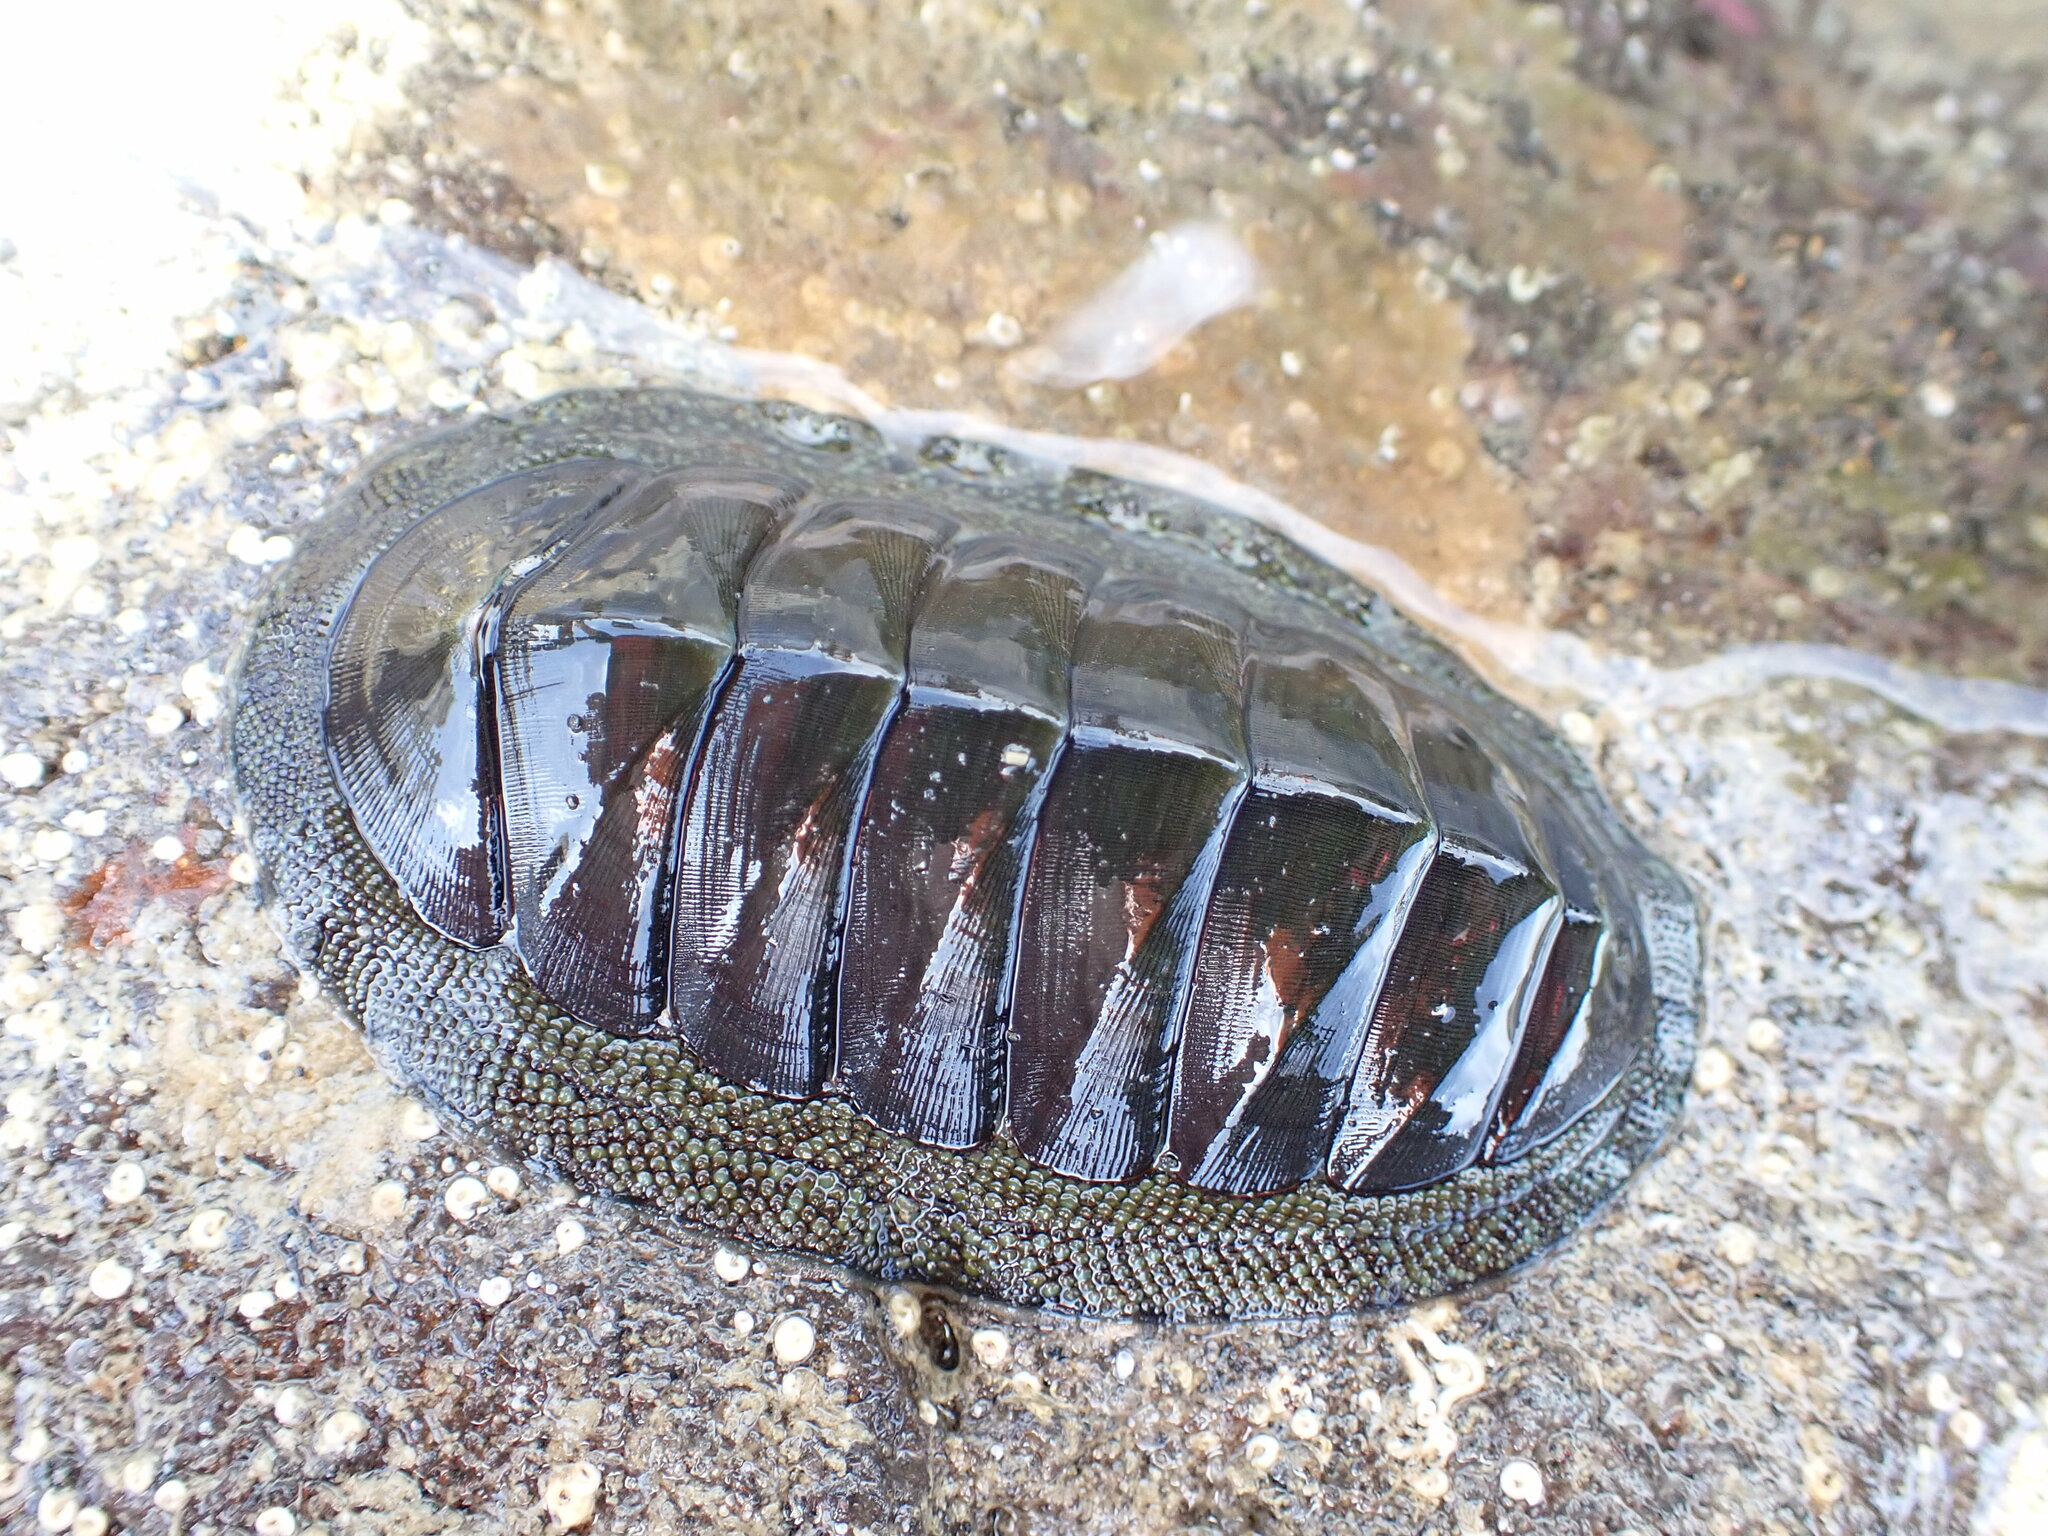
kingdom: Animalia
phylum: Mollusca
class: Polyplacophora
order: Chitonida
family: Chitonidae
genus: Chiton
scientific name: Chiton glaucus
